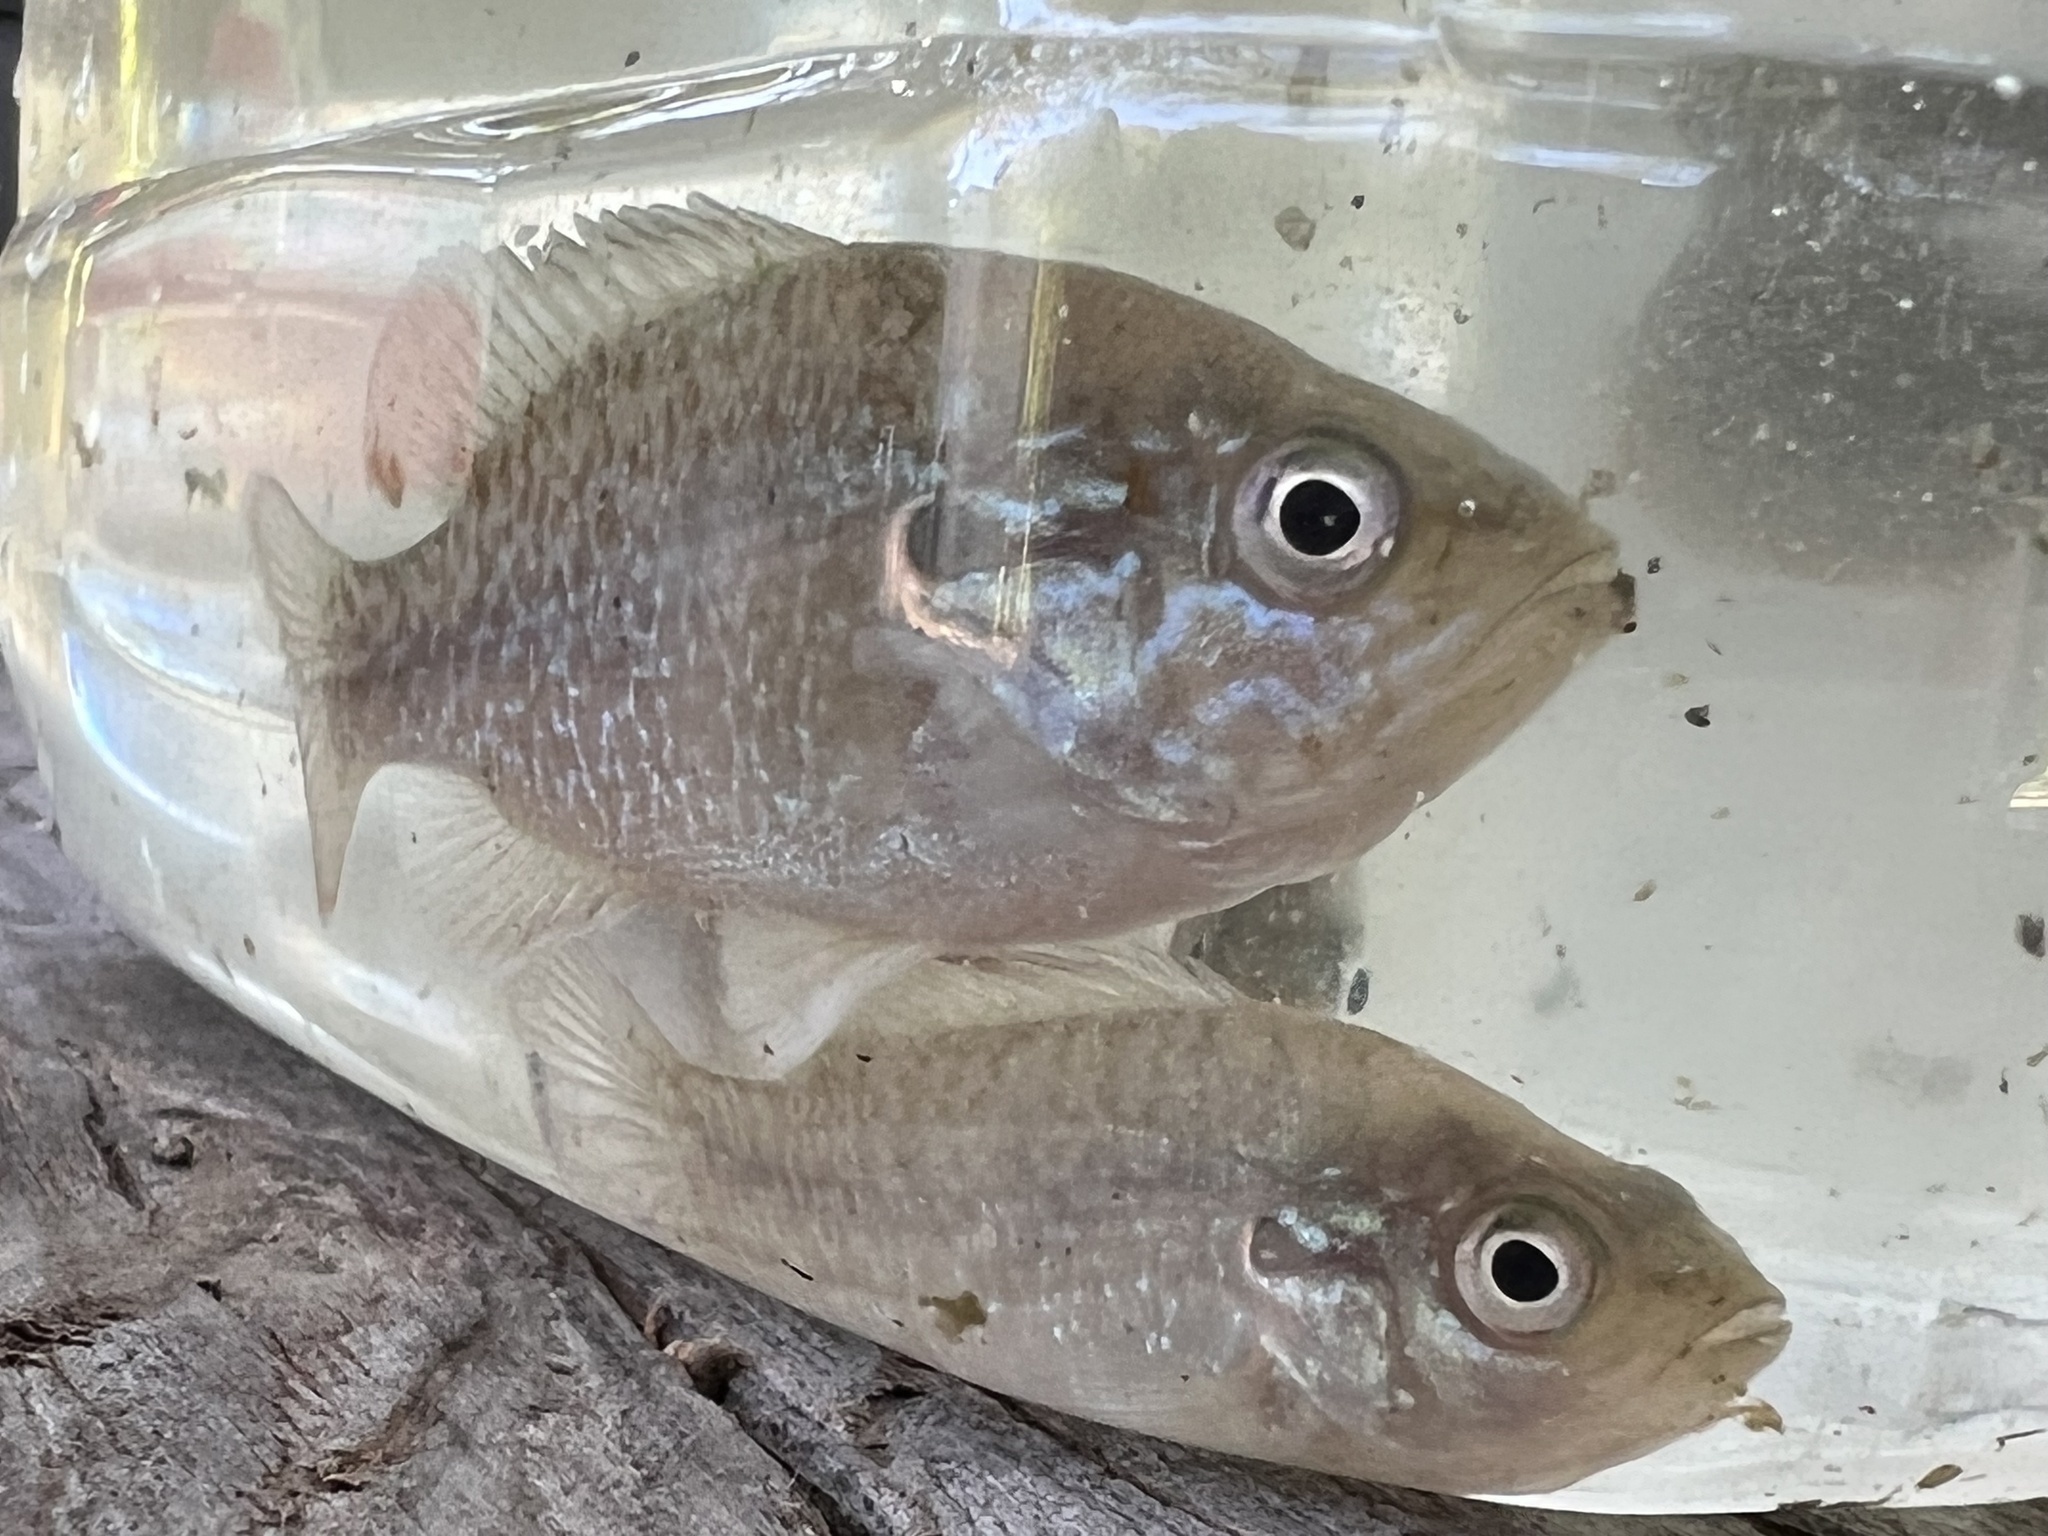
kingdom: Animalia
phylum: Chordata
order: Perciformes
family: Centrarchidae
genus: Lepomis
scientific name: Lepomis cyanellus
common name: Green sunfish
